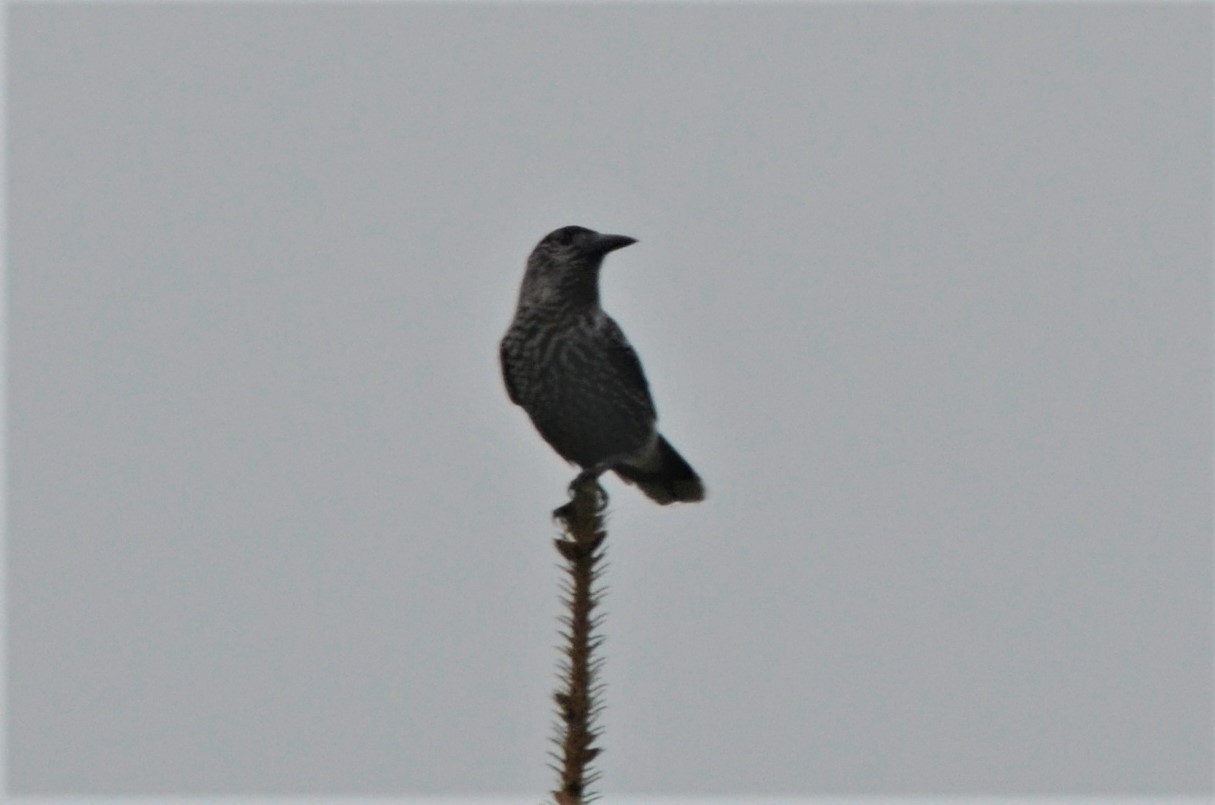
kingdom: Animalia
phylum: Chordata
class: Aves
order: Passeriformes
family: Corvidae
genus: Nucifraga
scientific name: Nucifraga caryocatactes
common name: Spotted nutcracker
